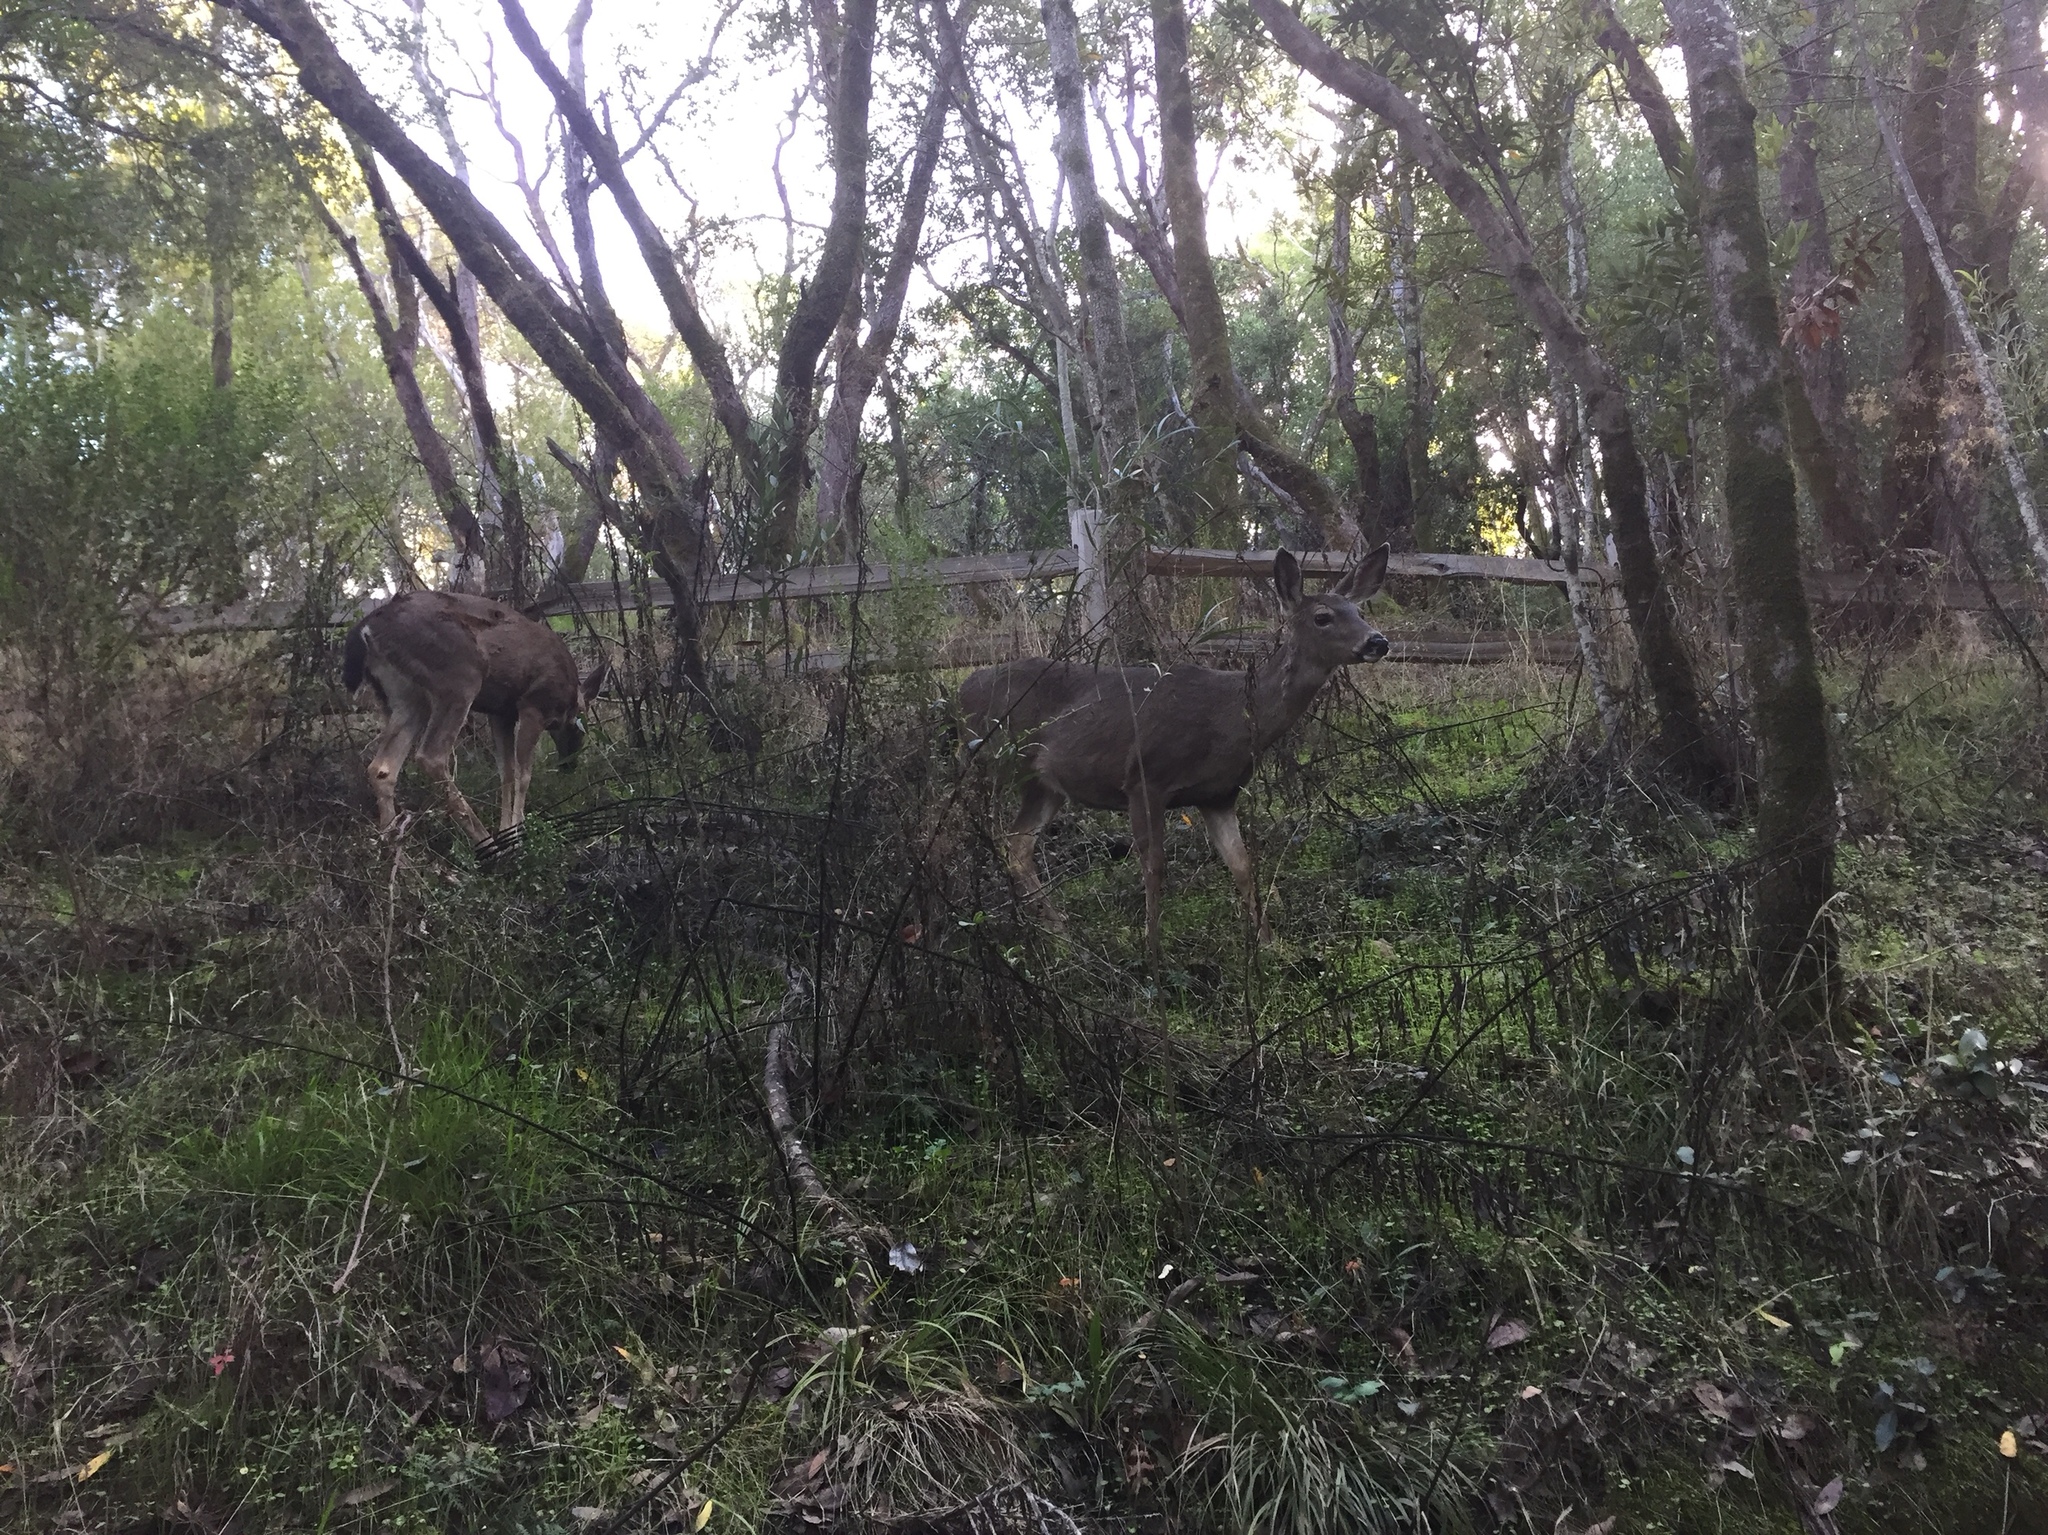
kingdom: Animalia
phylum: Chordata
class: Mammalia
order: Artiodactyla
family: Cervidae
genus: Odocoileus
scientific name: Odocoileus hemionus
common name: Mule deer
